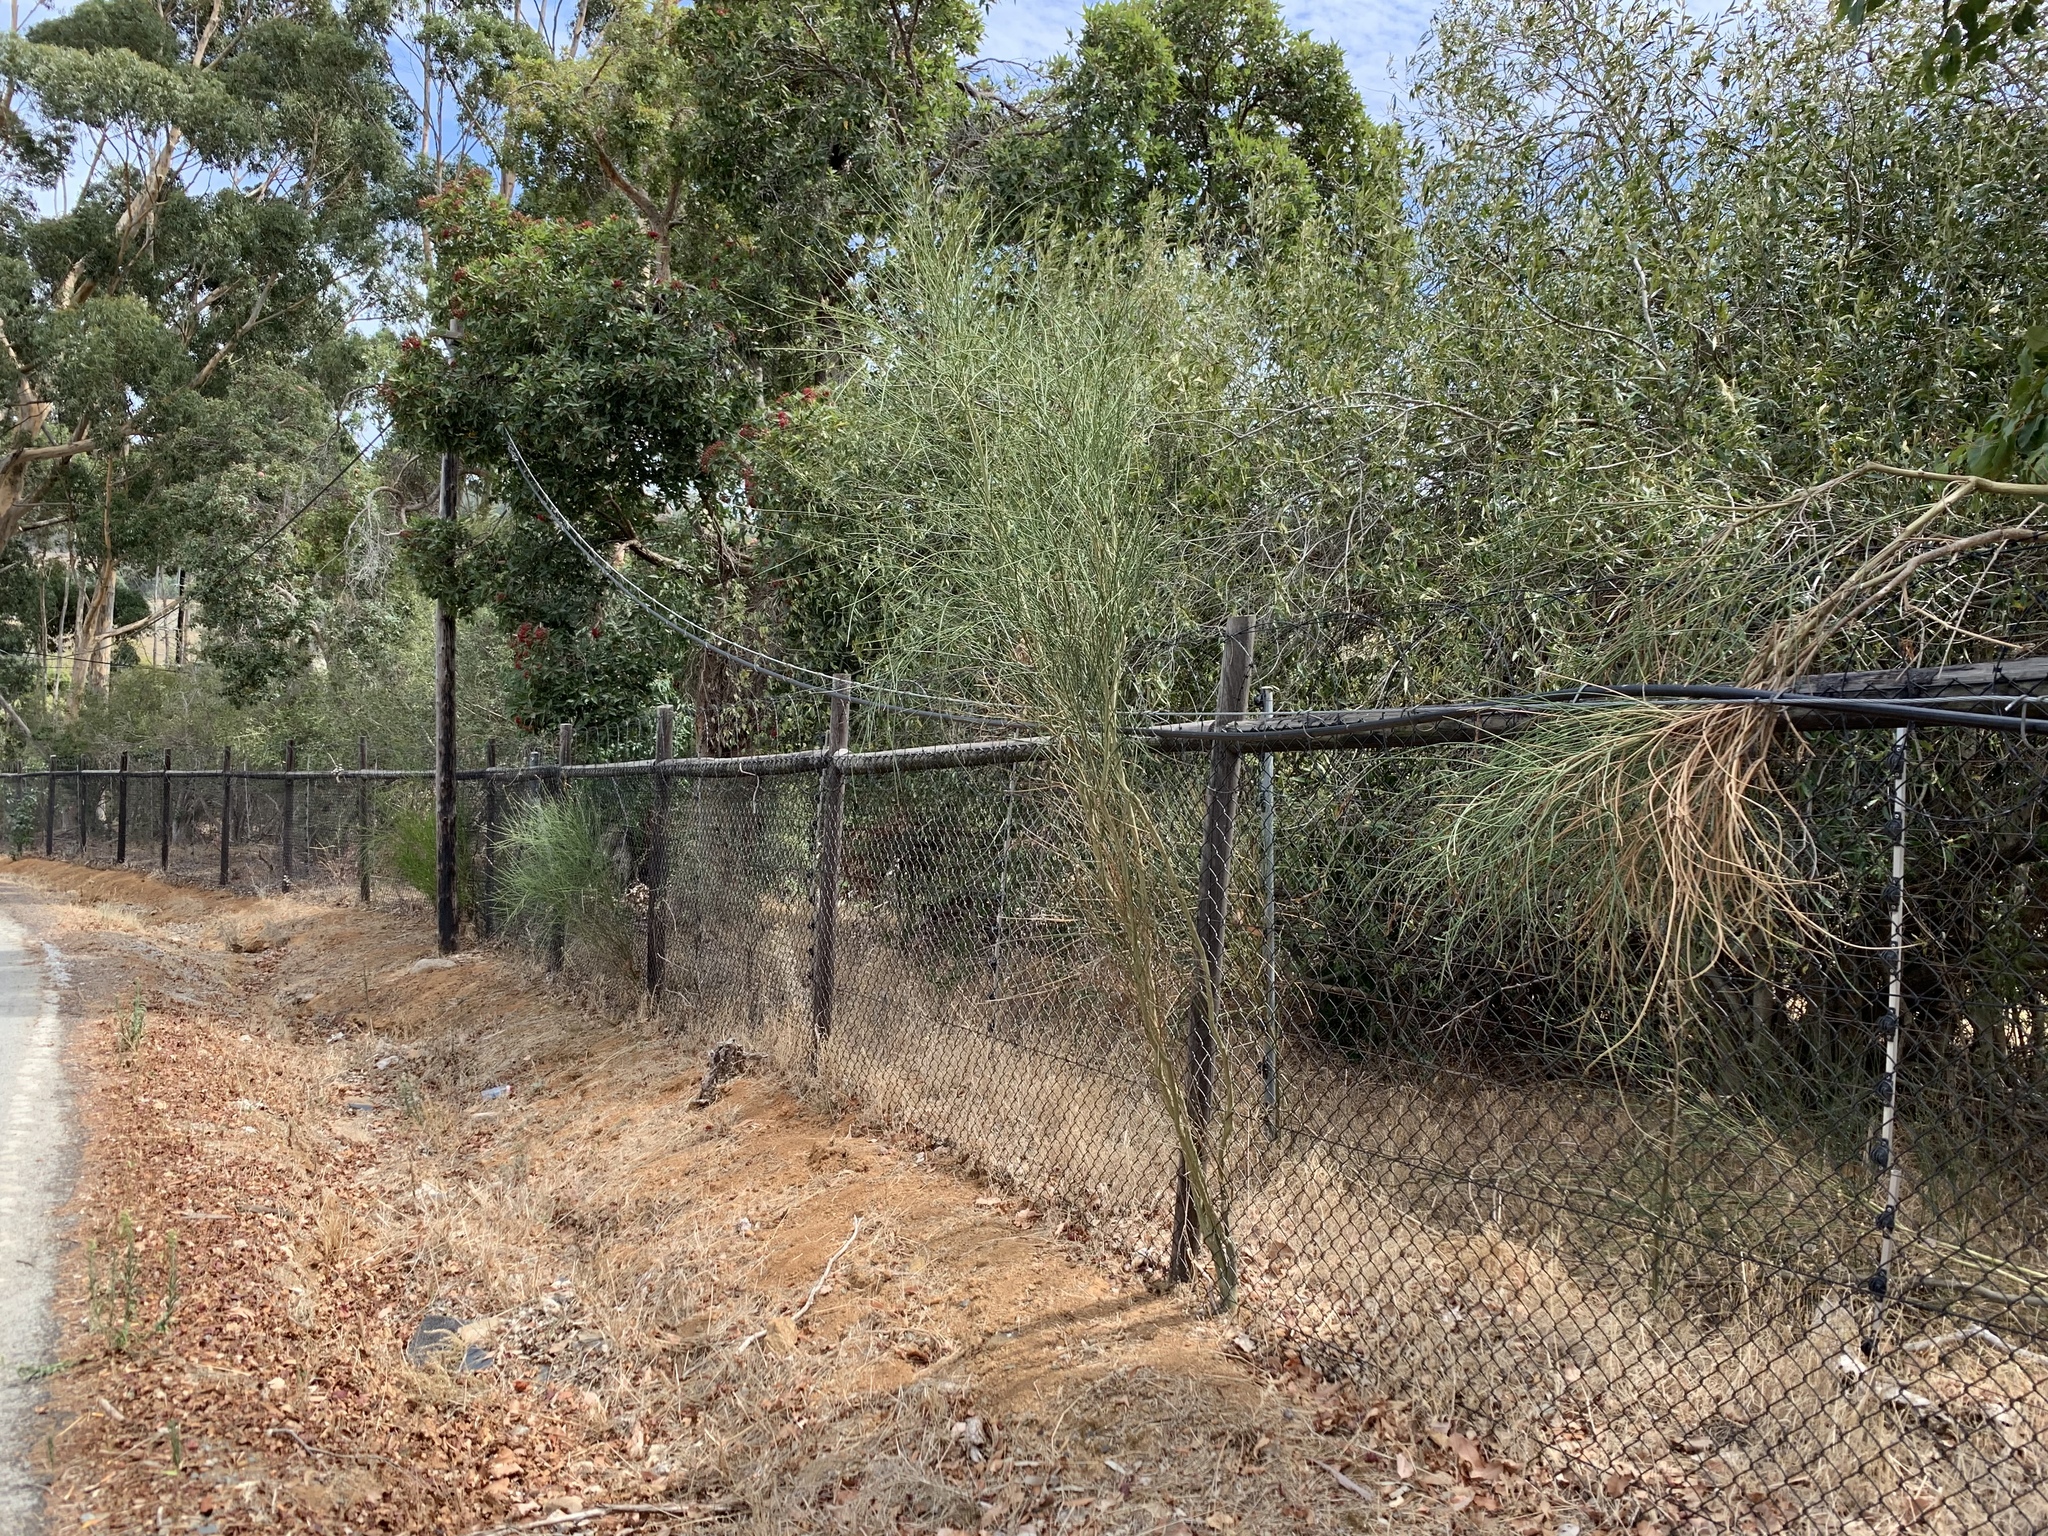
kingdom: Plantae
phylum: Tracheophyta
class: Magnoliopsida
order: Fabales
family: Fabaceae
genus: Spartium
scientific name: Spartium junceum
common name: Spanish broom
